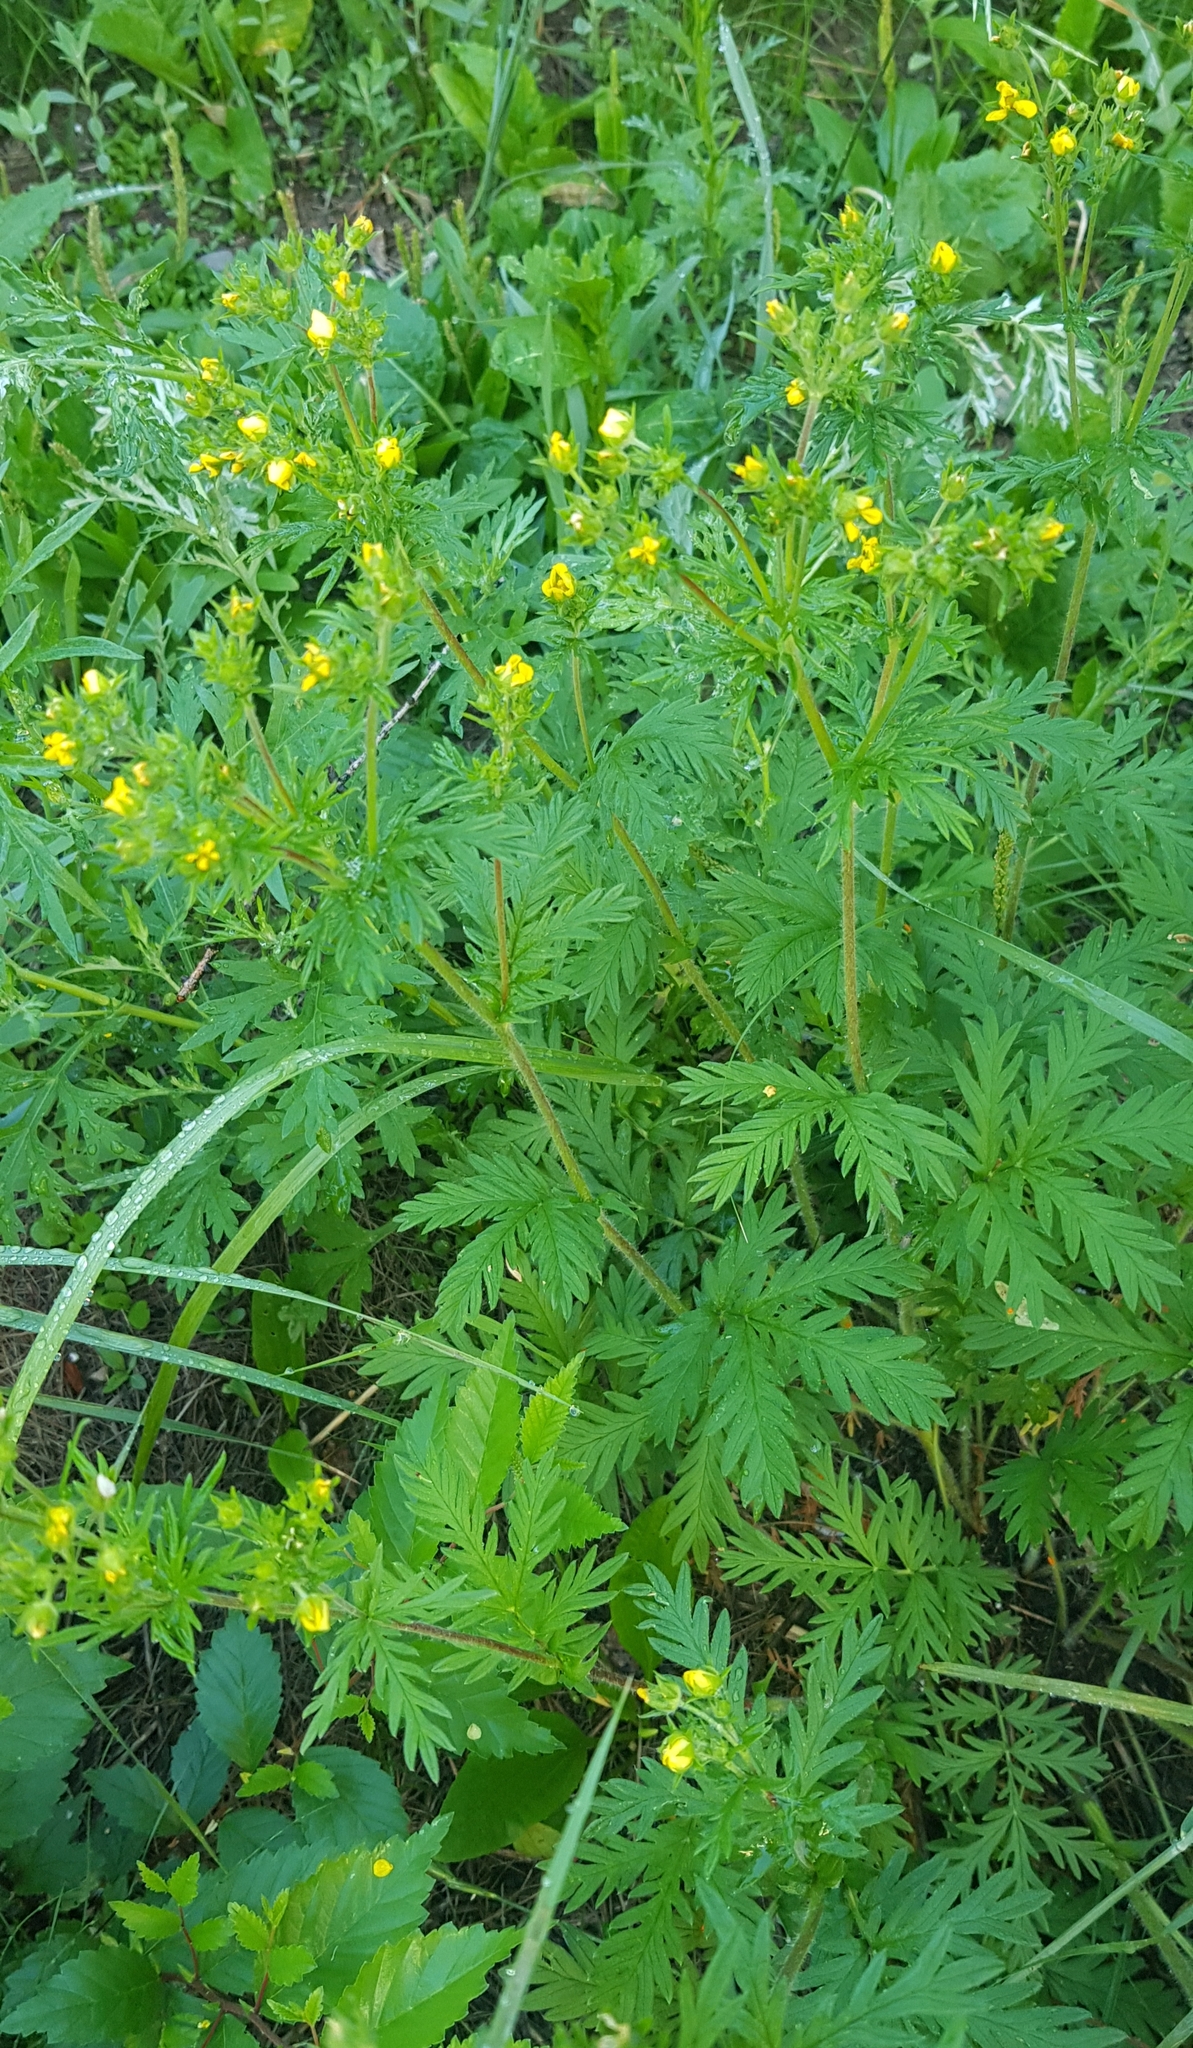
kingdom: Plantae
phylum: Tracheophyta
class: Magnoliopsida
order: Rosales
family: Rosaceae
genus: Potentilla
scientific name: Potentilla chalchorum
